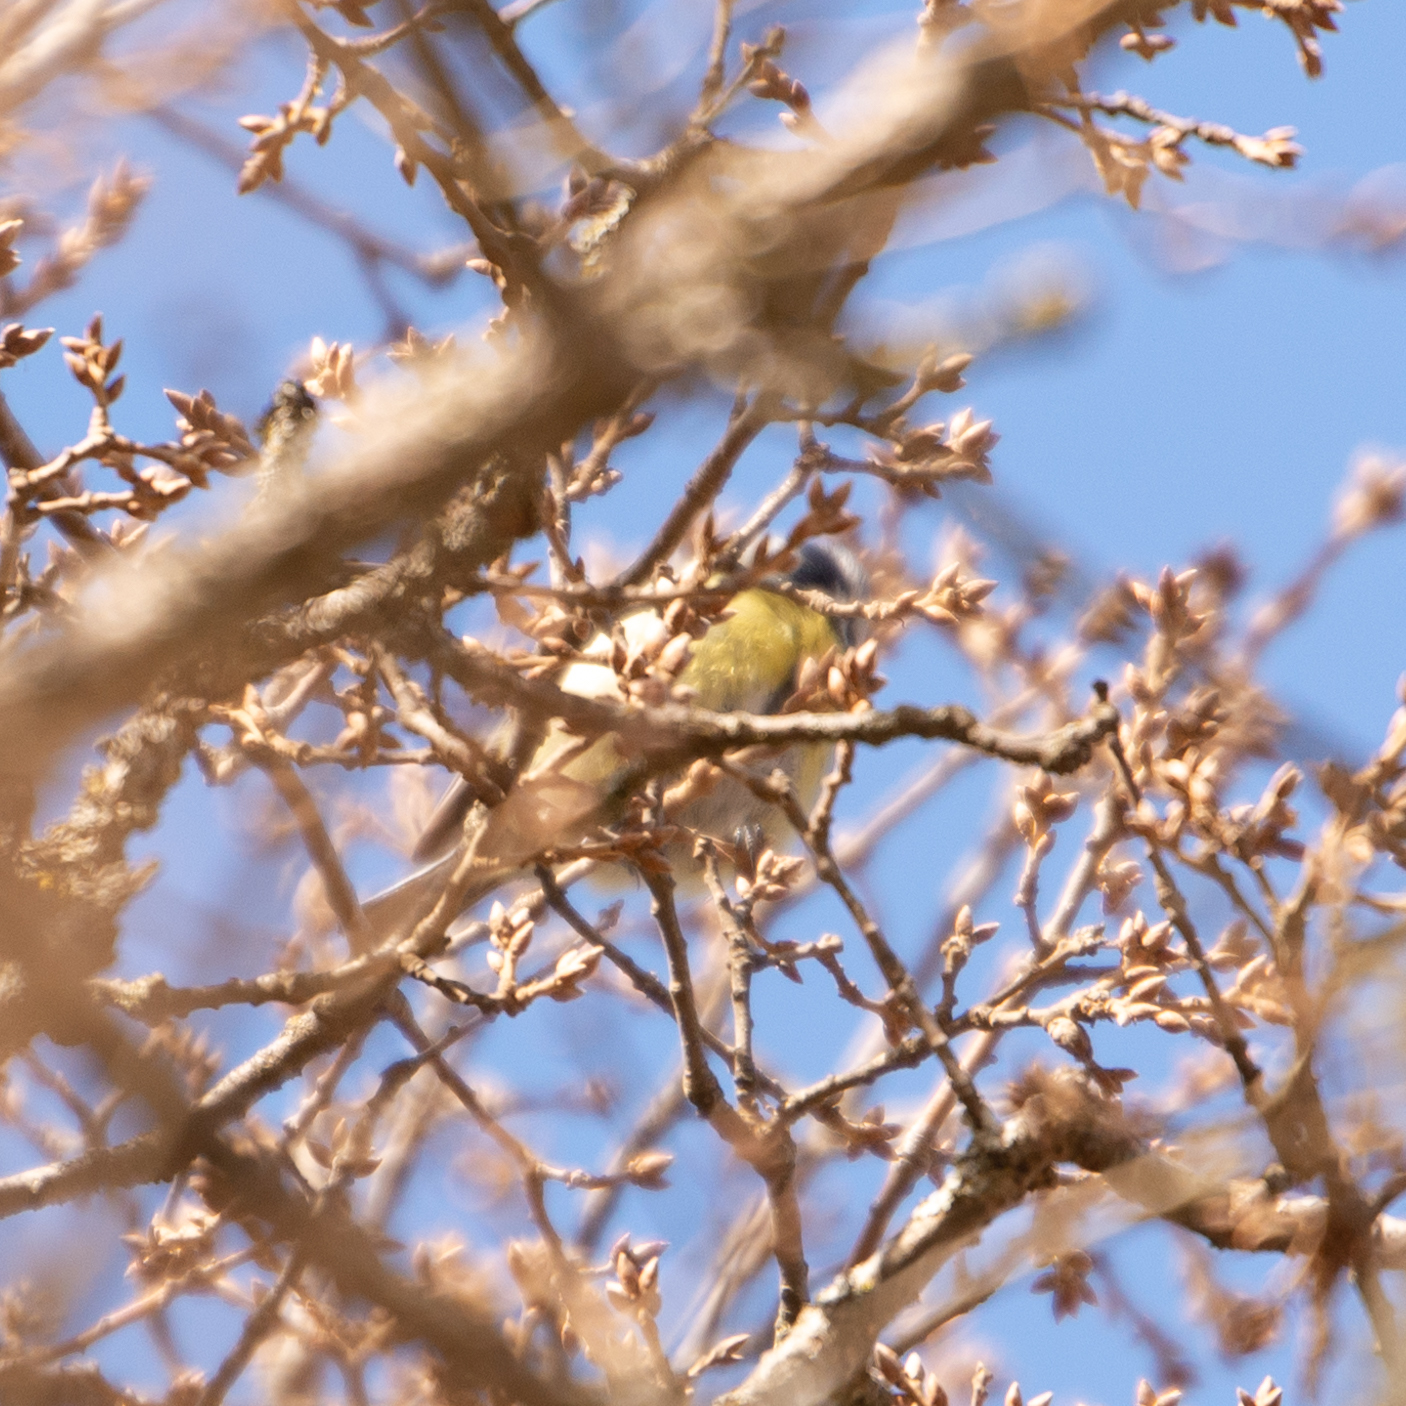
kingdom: Animalia
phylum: Chordata
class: Aves
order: Passeriformes
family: Paridae
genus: Cyanistes
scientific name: Cyanistes caeruleus
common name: Eurasian blue tit
